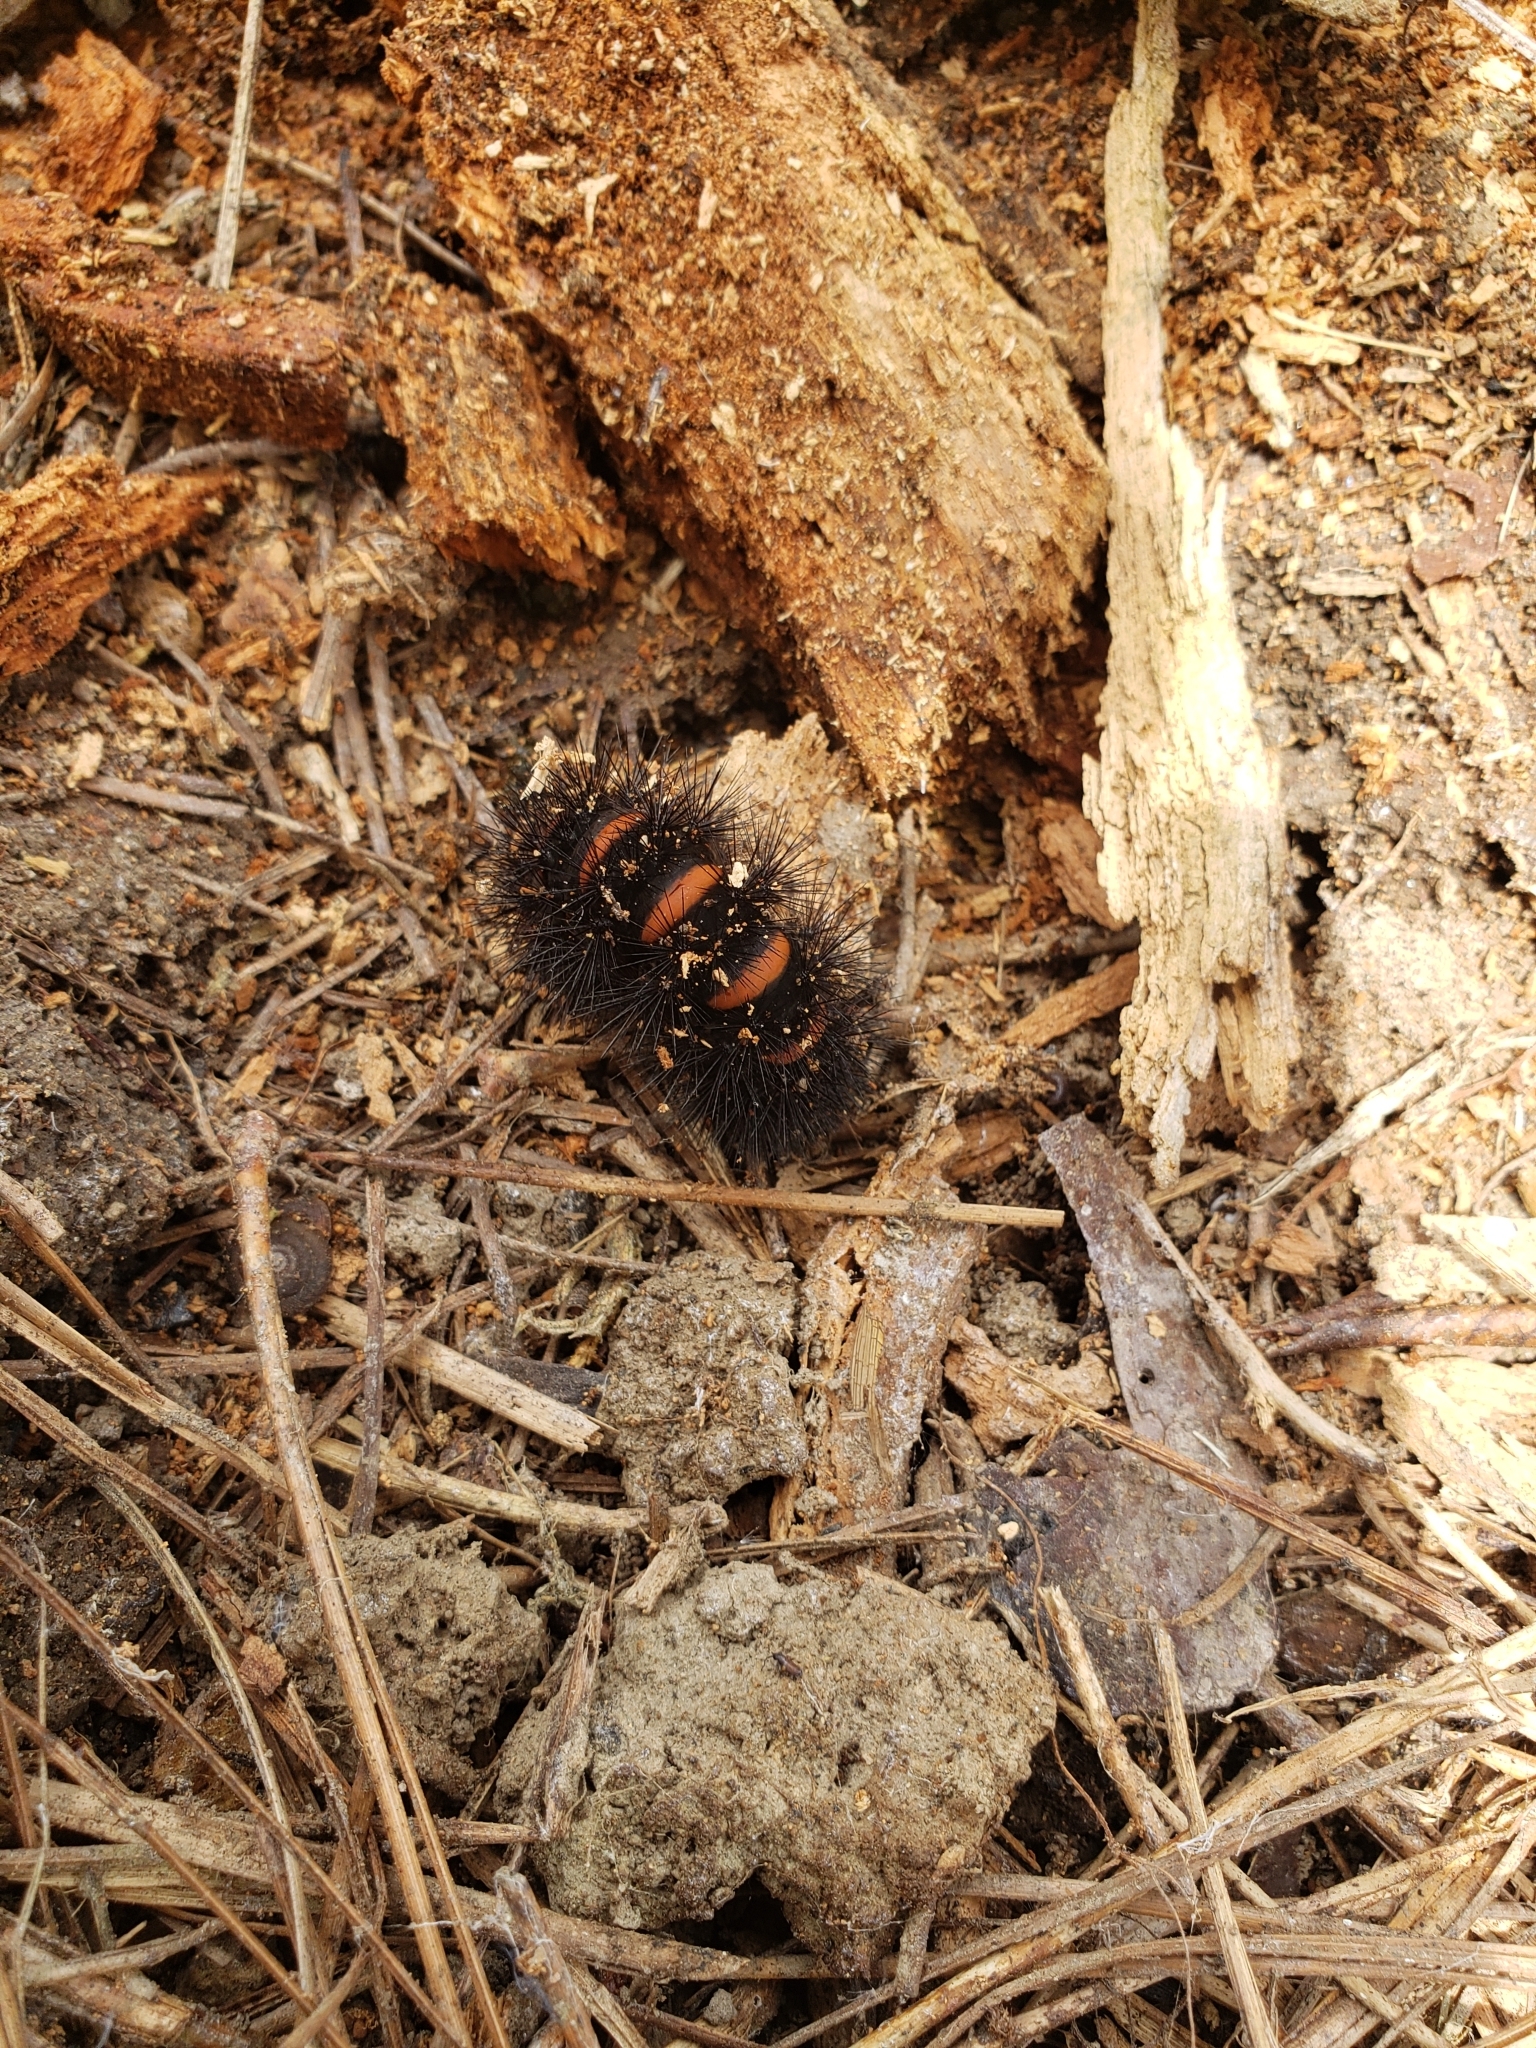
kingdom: Animalia
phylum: Arthropoda
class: Insecta
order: Lepidoptera
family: Erebidae
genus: Hypercompe
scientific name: Hypercompe scribonia
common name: Giant leopard moth
